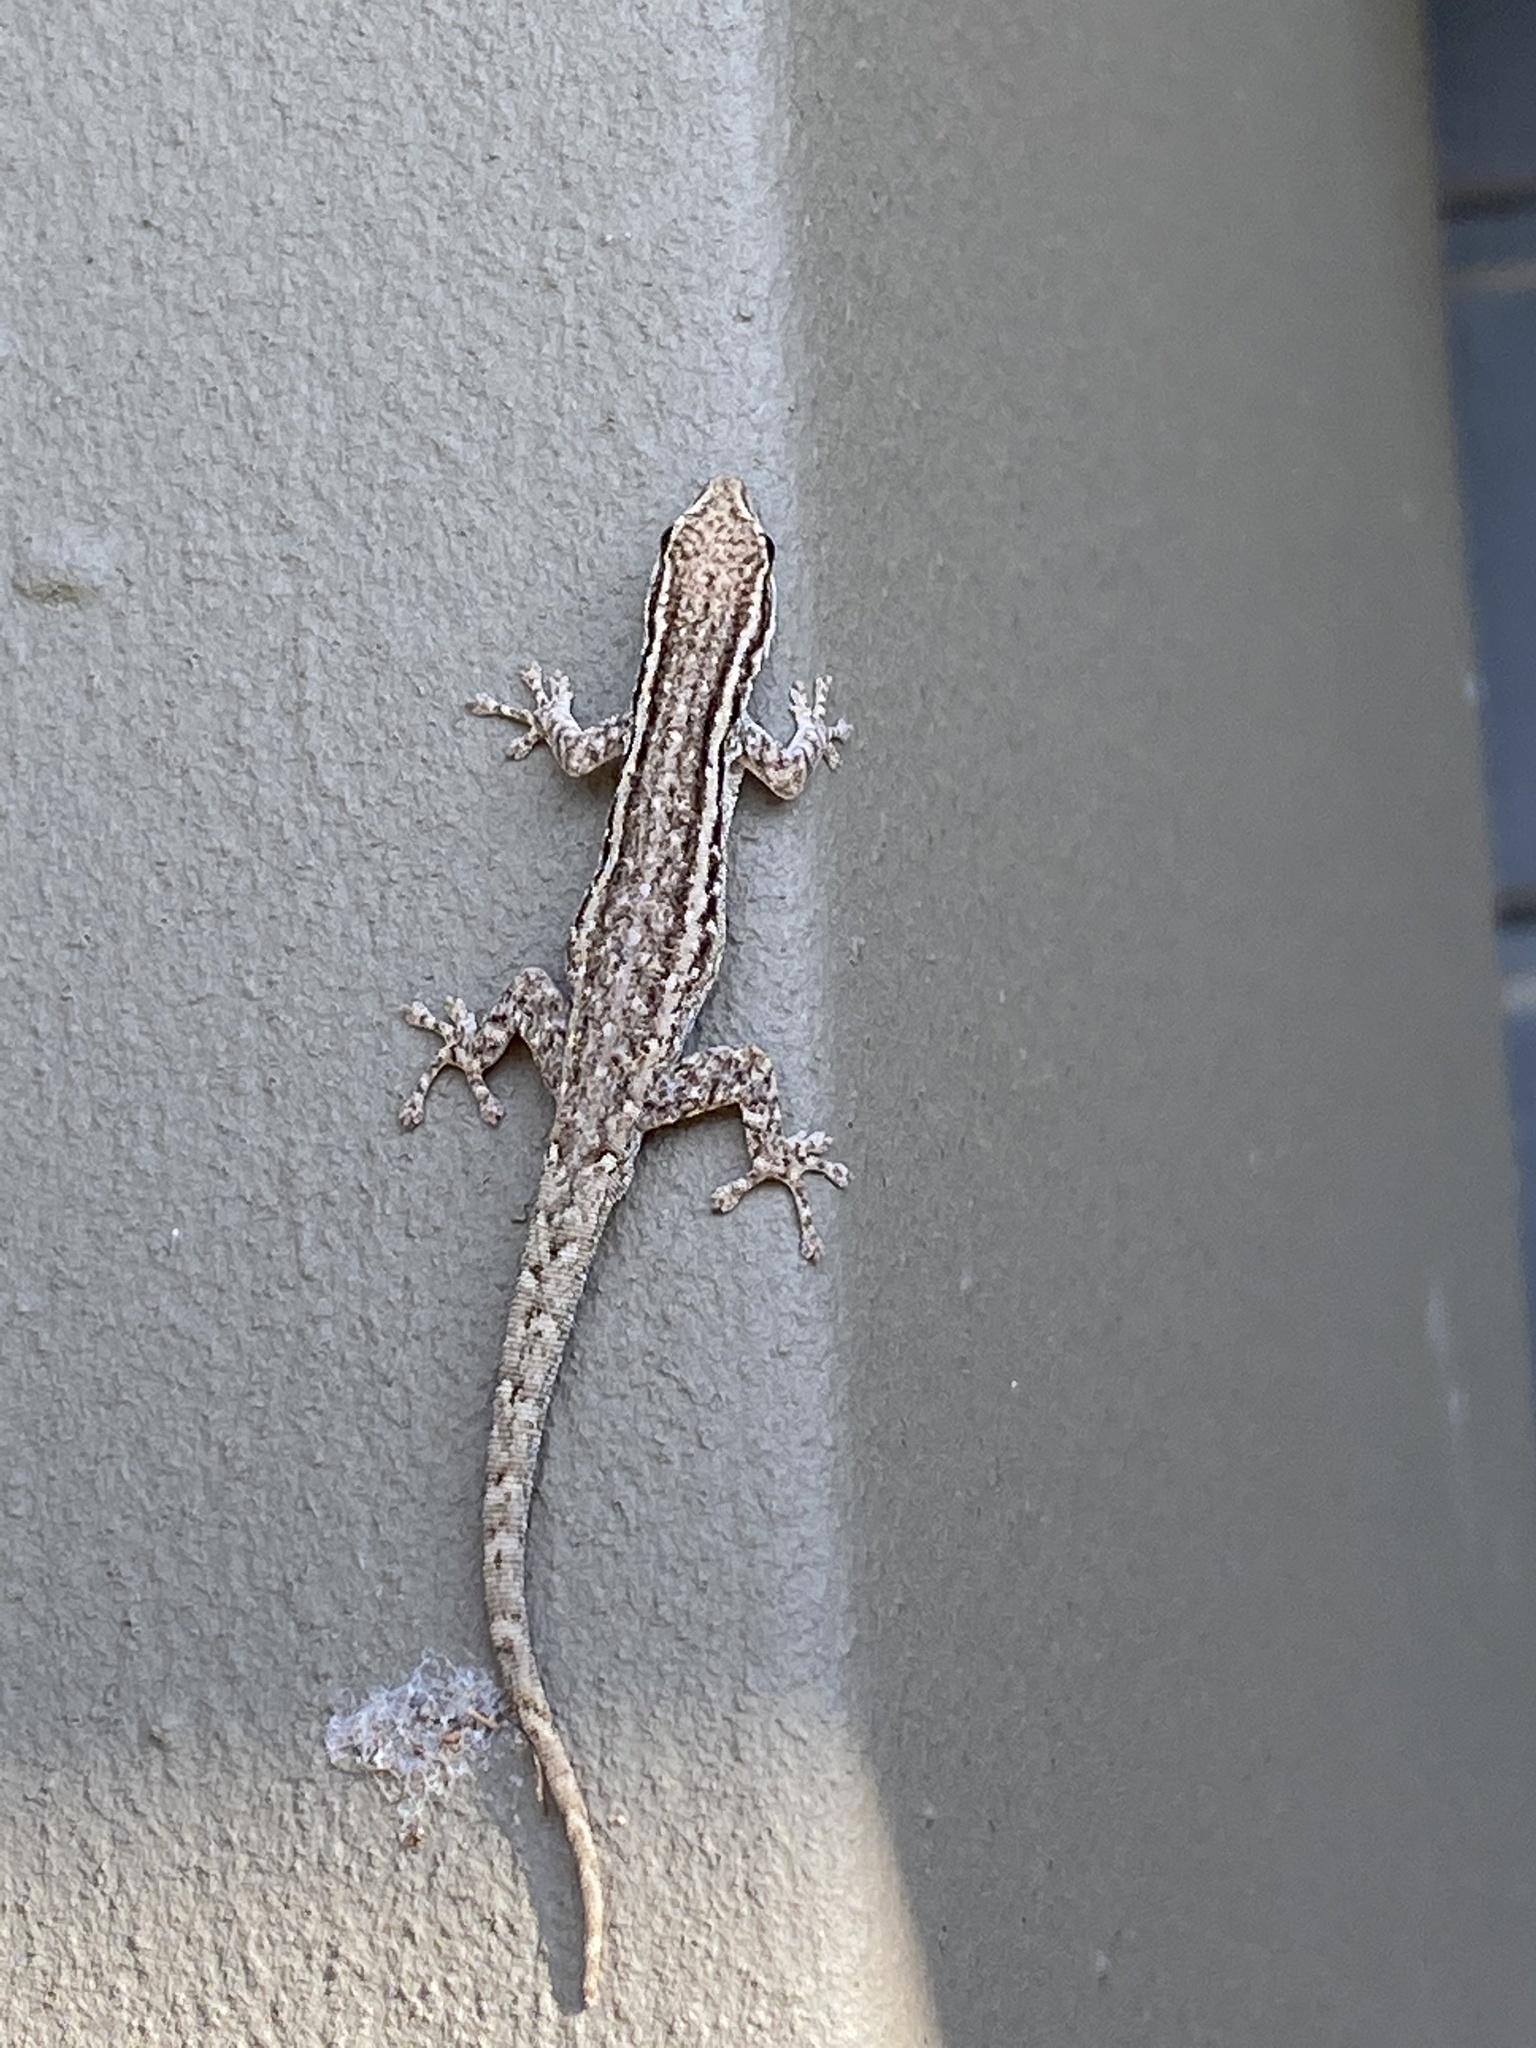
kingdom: Animalia
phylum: Chordata
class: Squamata
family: Gekkonidae
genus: Lygodactylus
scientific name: Lygodactylus capensis
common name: Cape dwarf gecko
